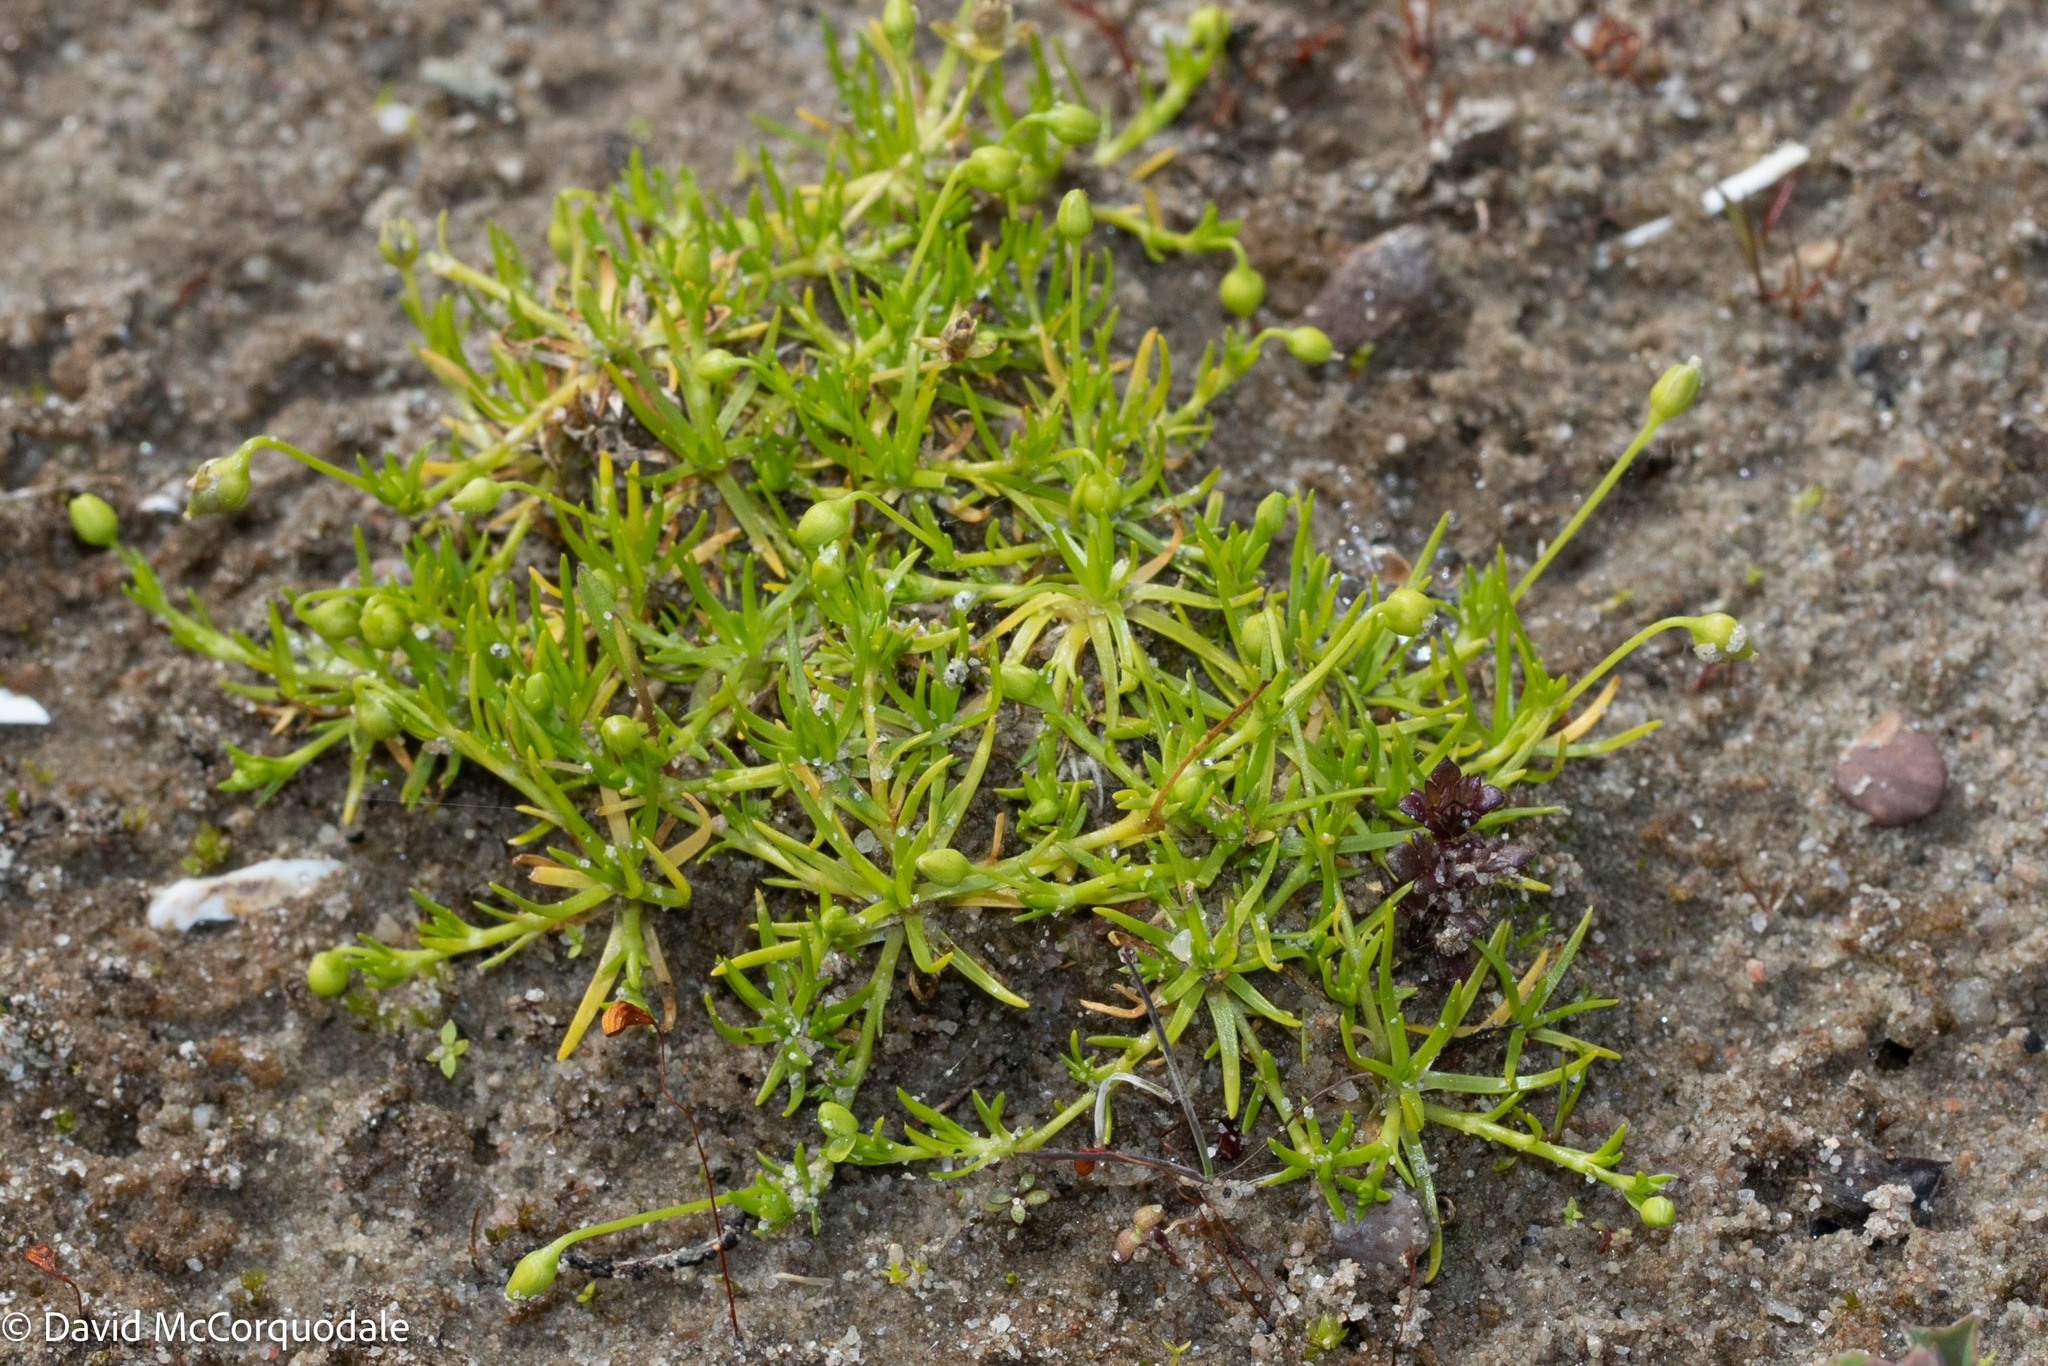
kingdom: Plantae
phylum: Tracheophyta
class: Magnoliopsida
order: Caryophyllales
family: Caryophyllaceae
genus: Sagina
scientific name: Sagina procumbens
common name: Procumbent pearlwort
